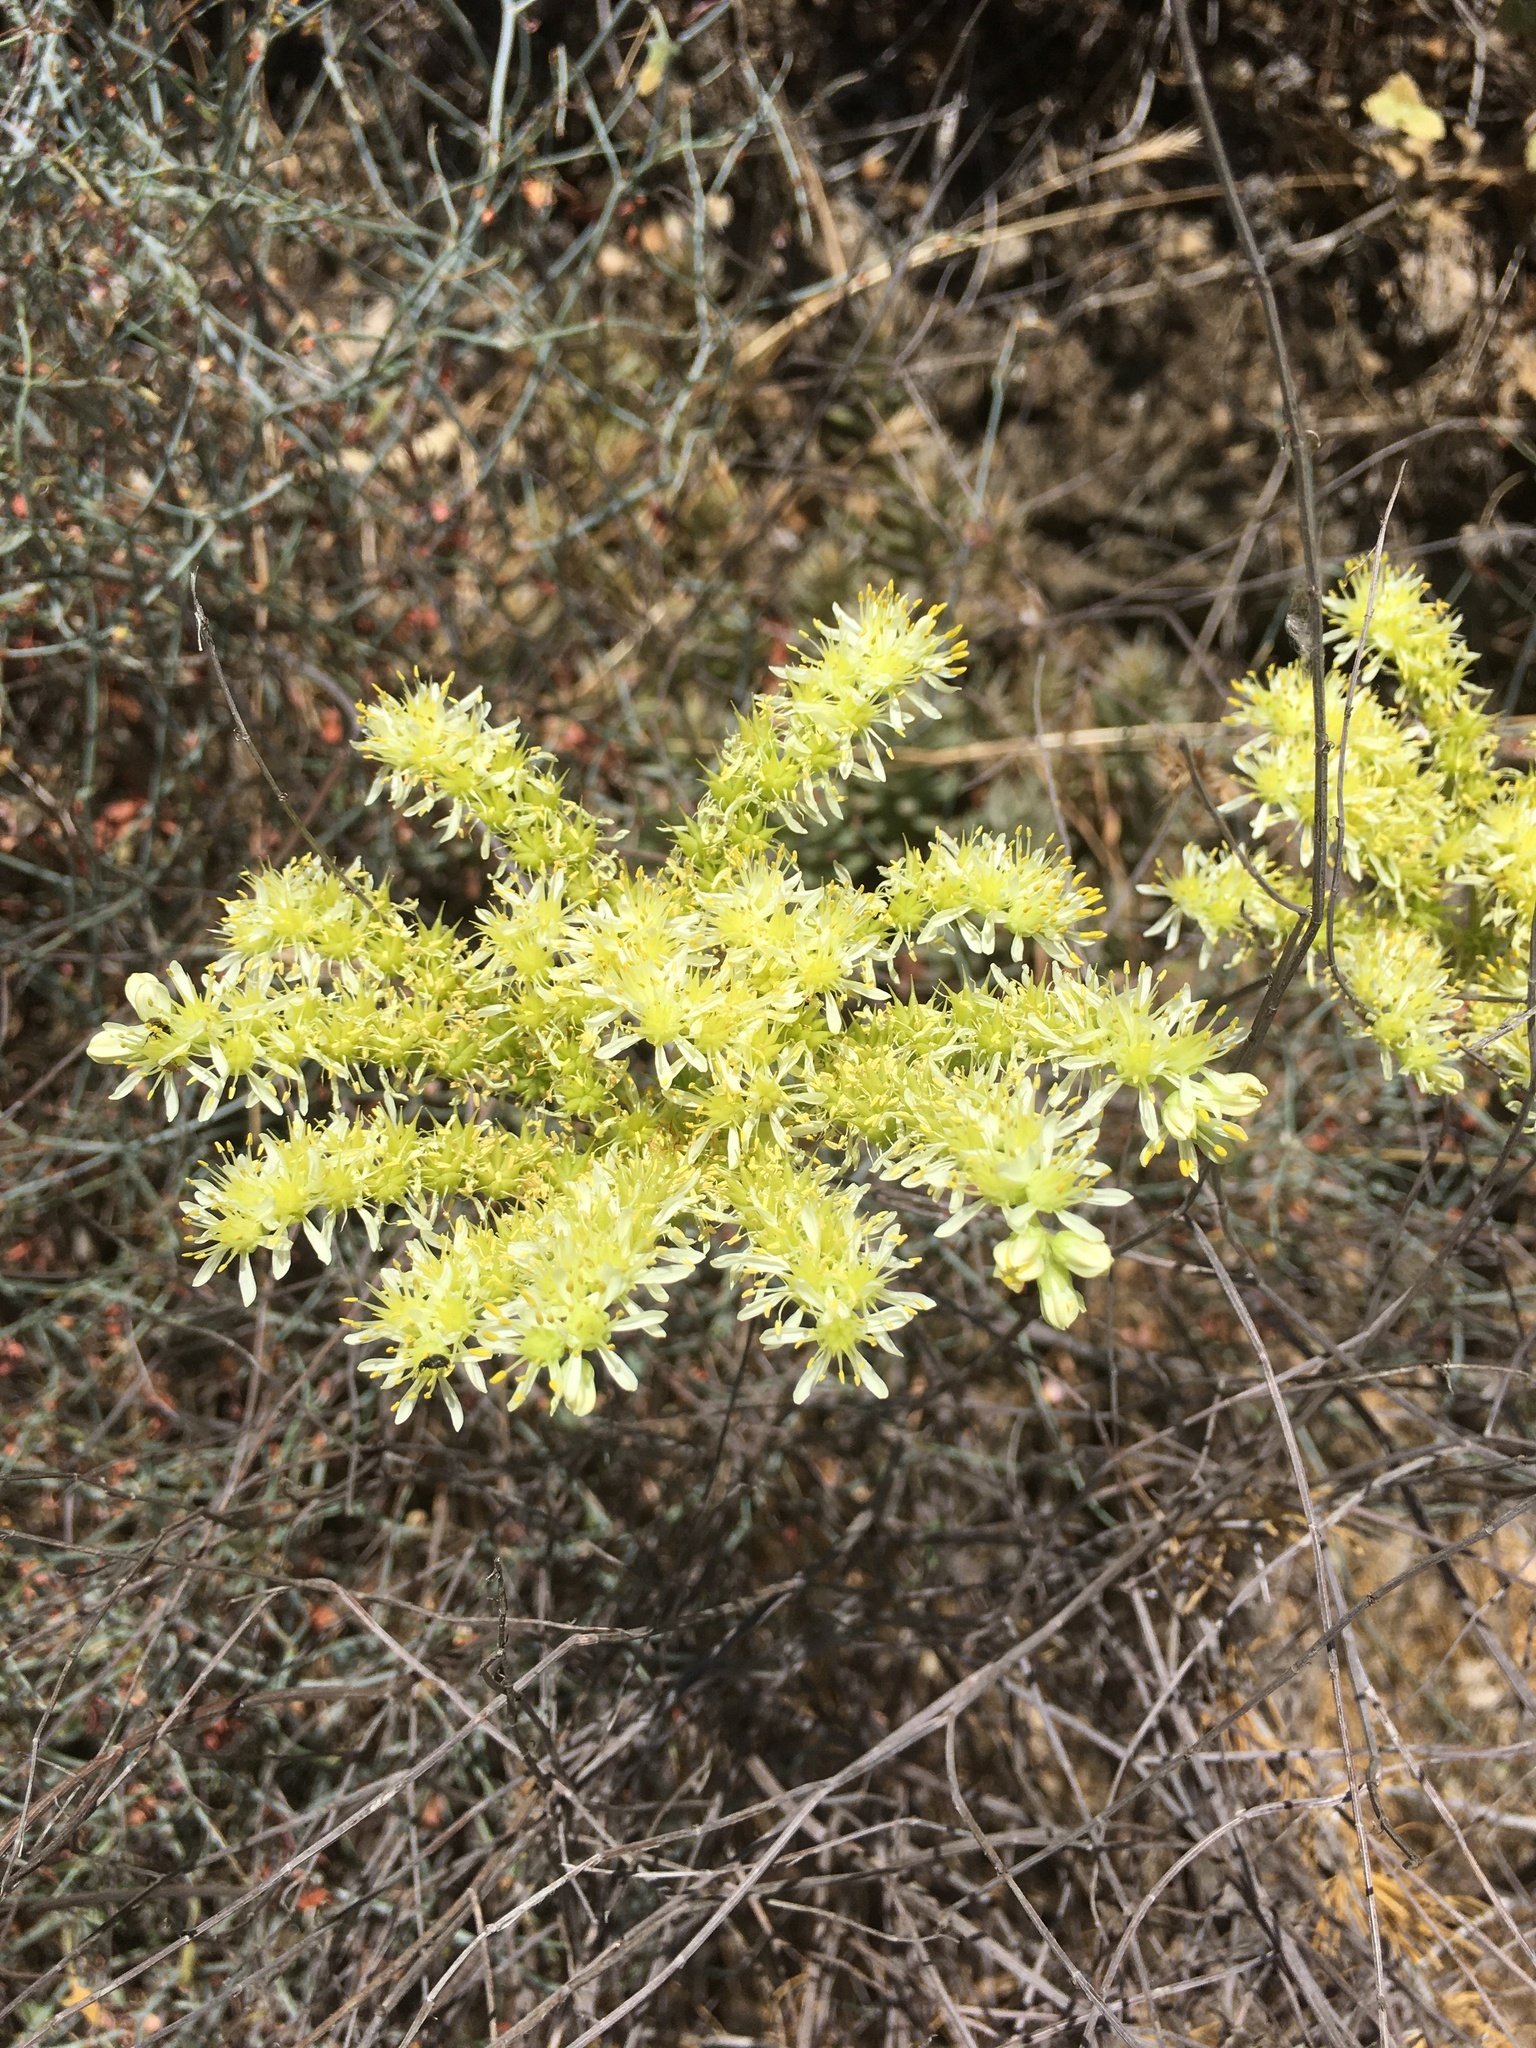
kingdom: Plantae
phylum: Tracheophyta
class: Magnoliopsida
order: Saxifragales
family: Crassulaceae
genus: Petrosedum
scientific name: Petrosedum sediforme
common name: Pale stonecrop
